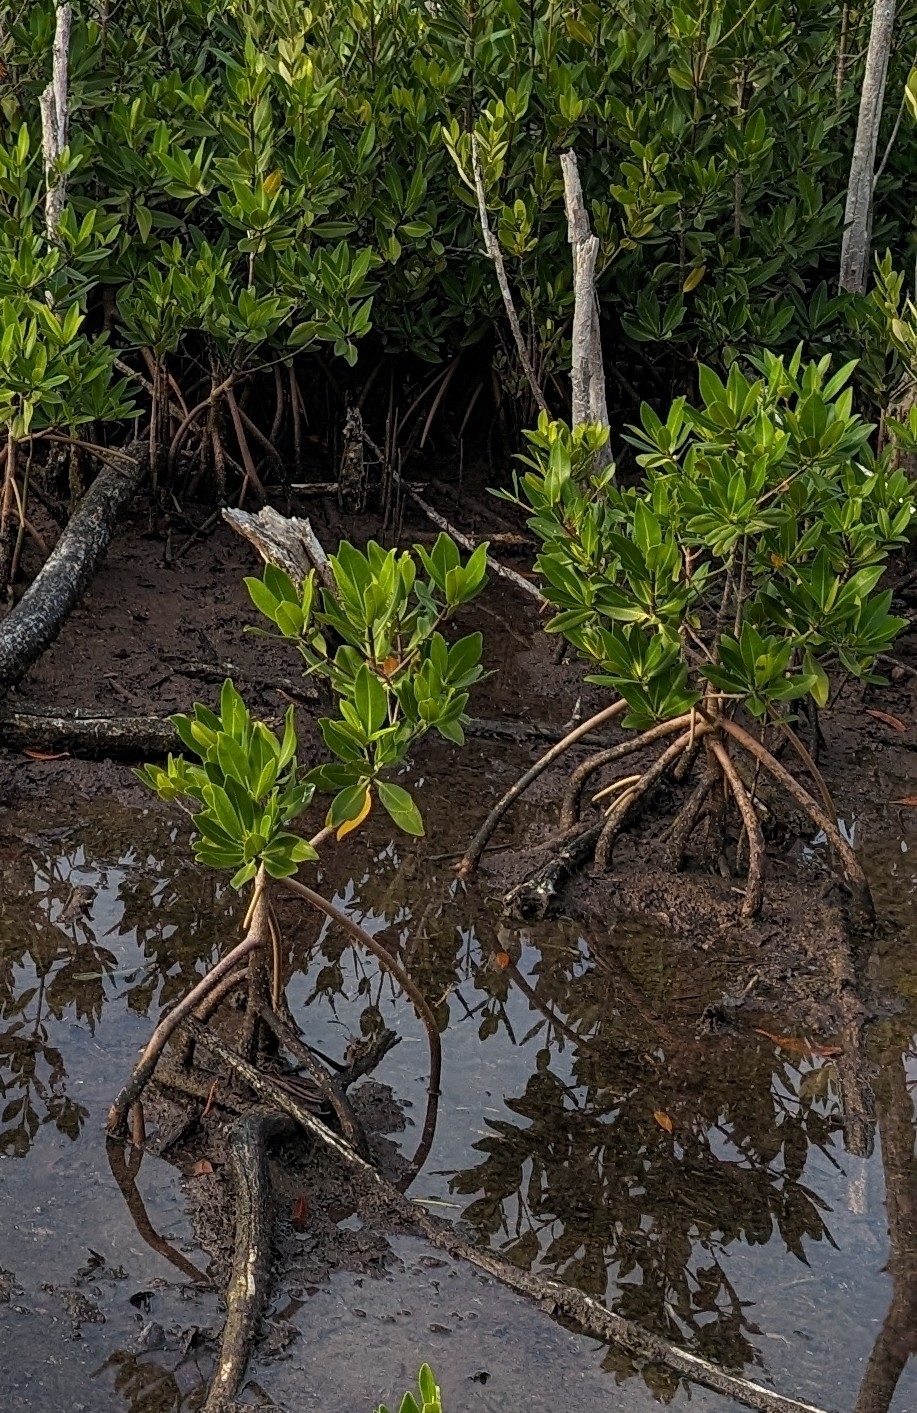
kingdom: Plantae
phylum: Tracheophyta
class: Magnoliopsida
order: Malpighiales
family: Rhizophoraceae
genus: Rhizophora
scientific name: Rhizophora mangle
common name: Red mangrove
